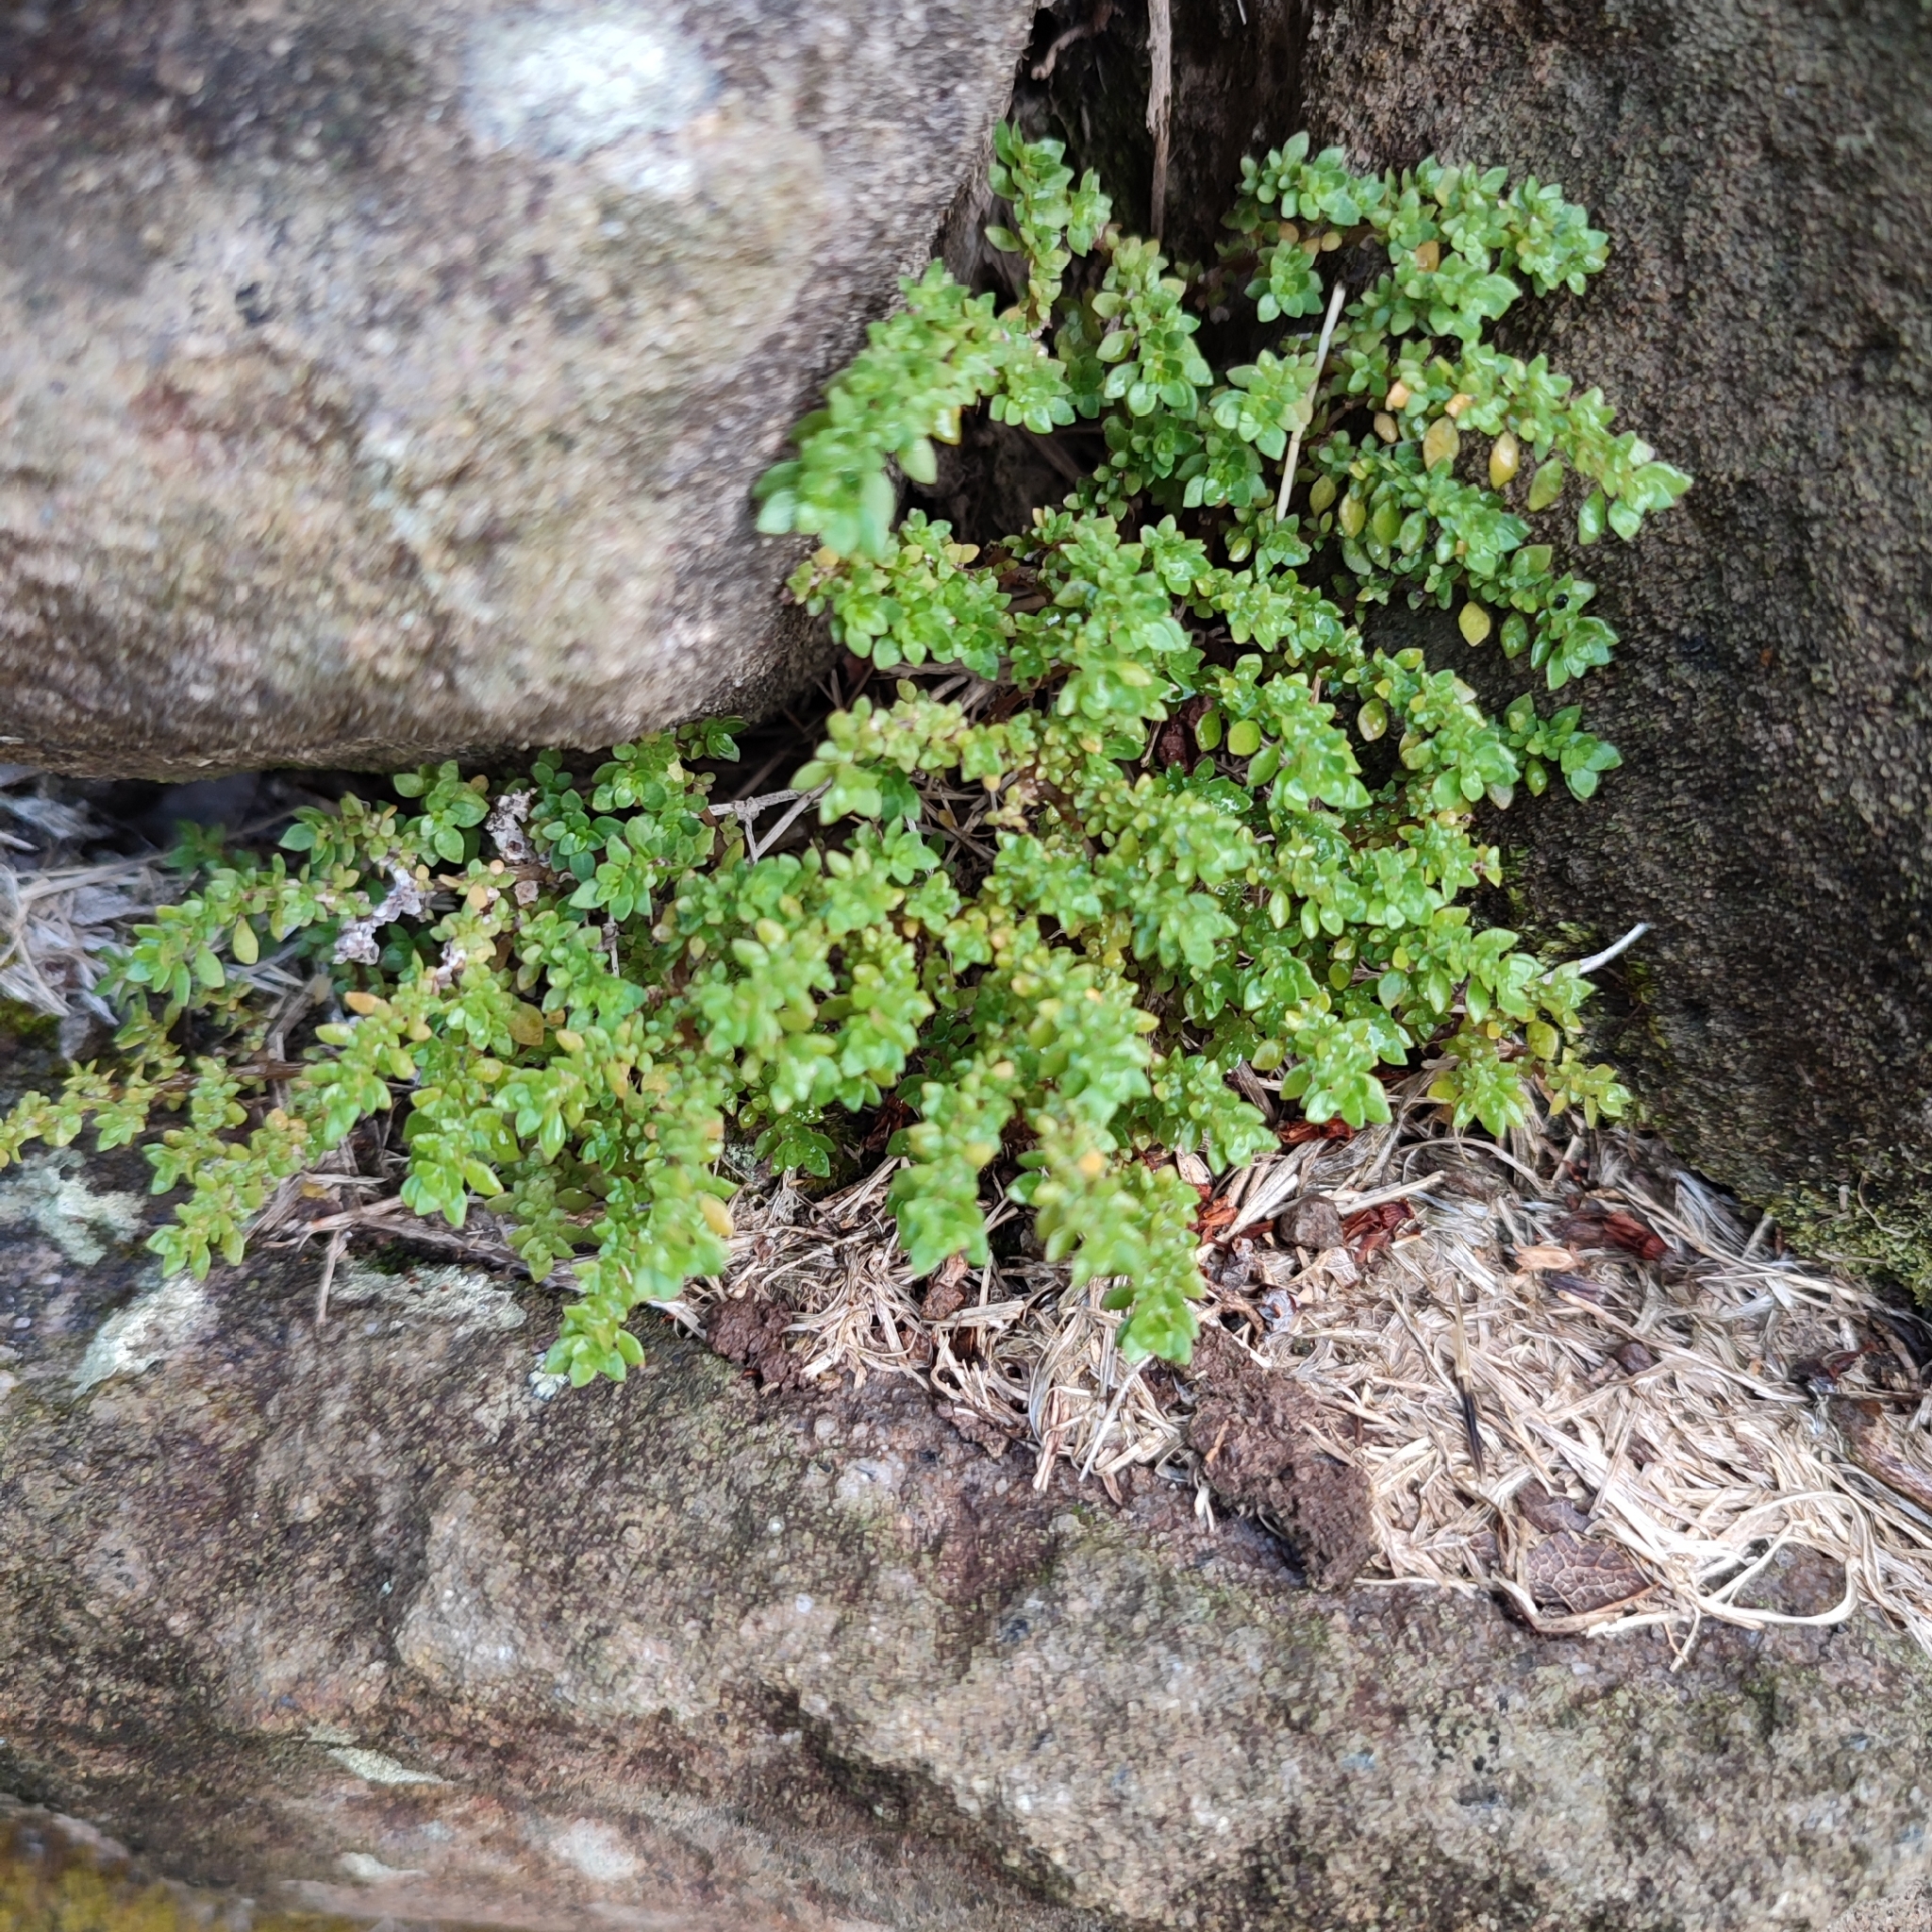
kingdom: Plantae
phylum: Tracheophyta
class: Magnoliopsida
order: Rosales
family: Urticaceae
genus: Pilea
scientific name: Pilea microphylla
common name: Artillery-plant
